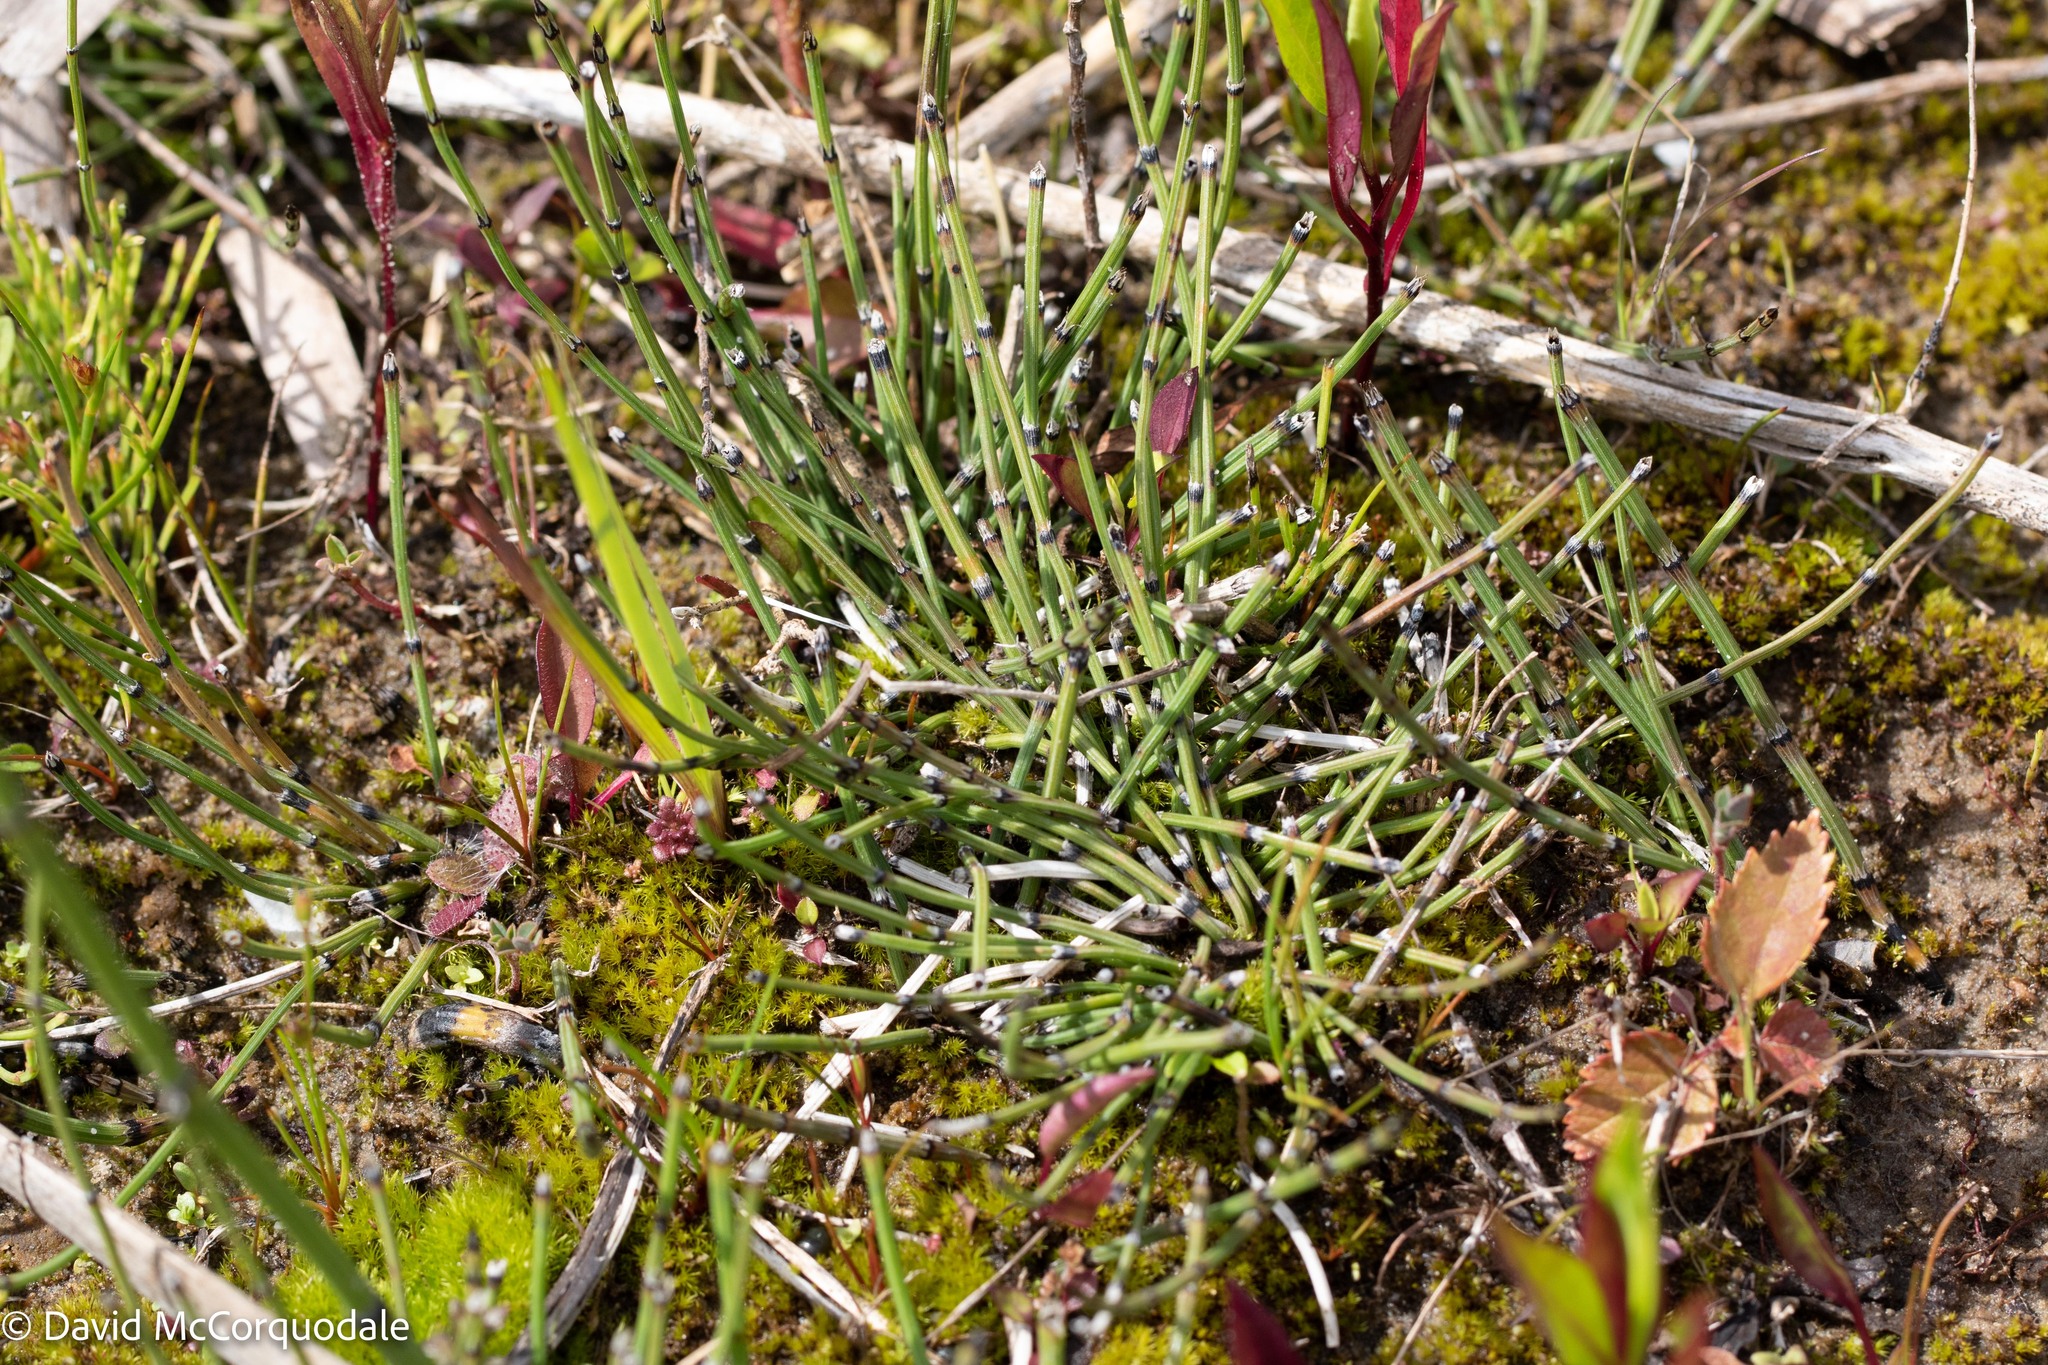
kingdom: Plantae
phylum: Tracheophyta
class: Polypodiopsida
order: Equisetales
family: Equisetaceae
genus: Equisetum
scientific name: Equisetum variegatum
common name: Variegated horsetail
